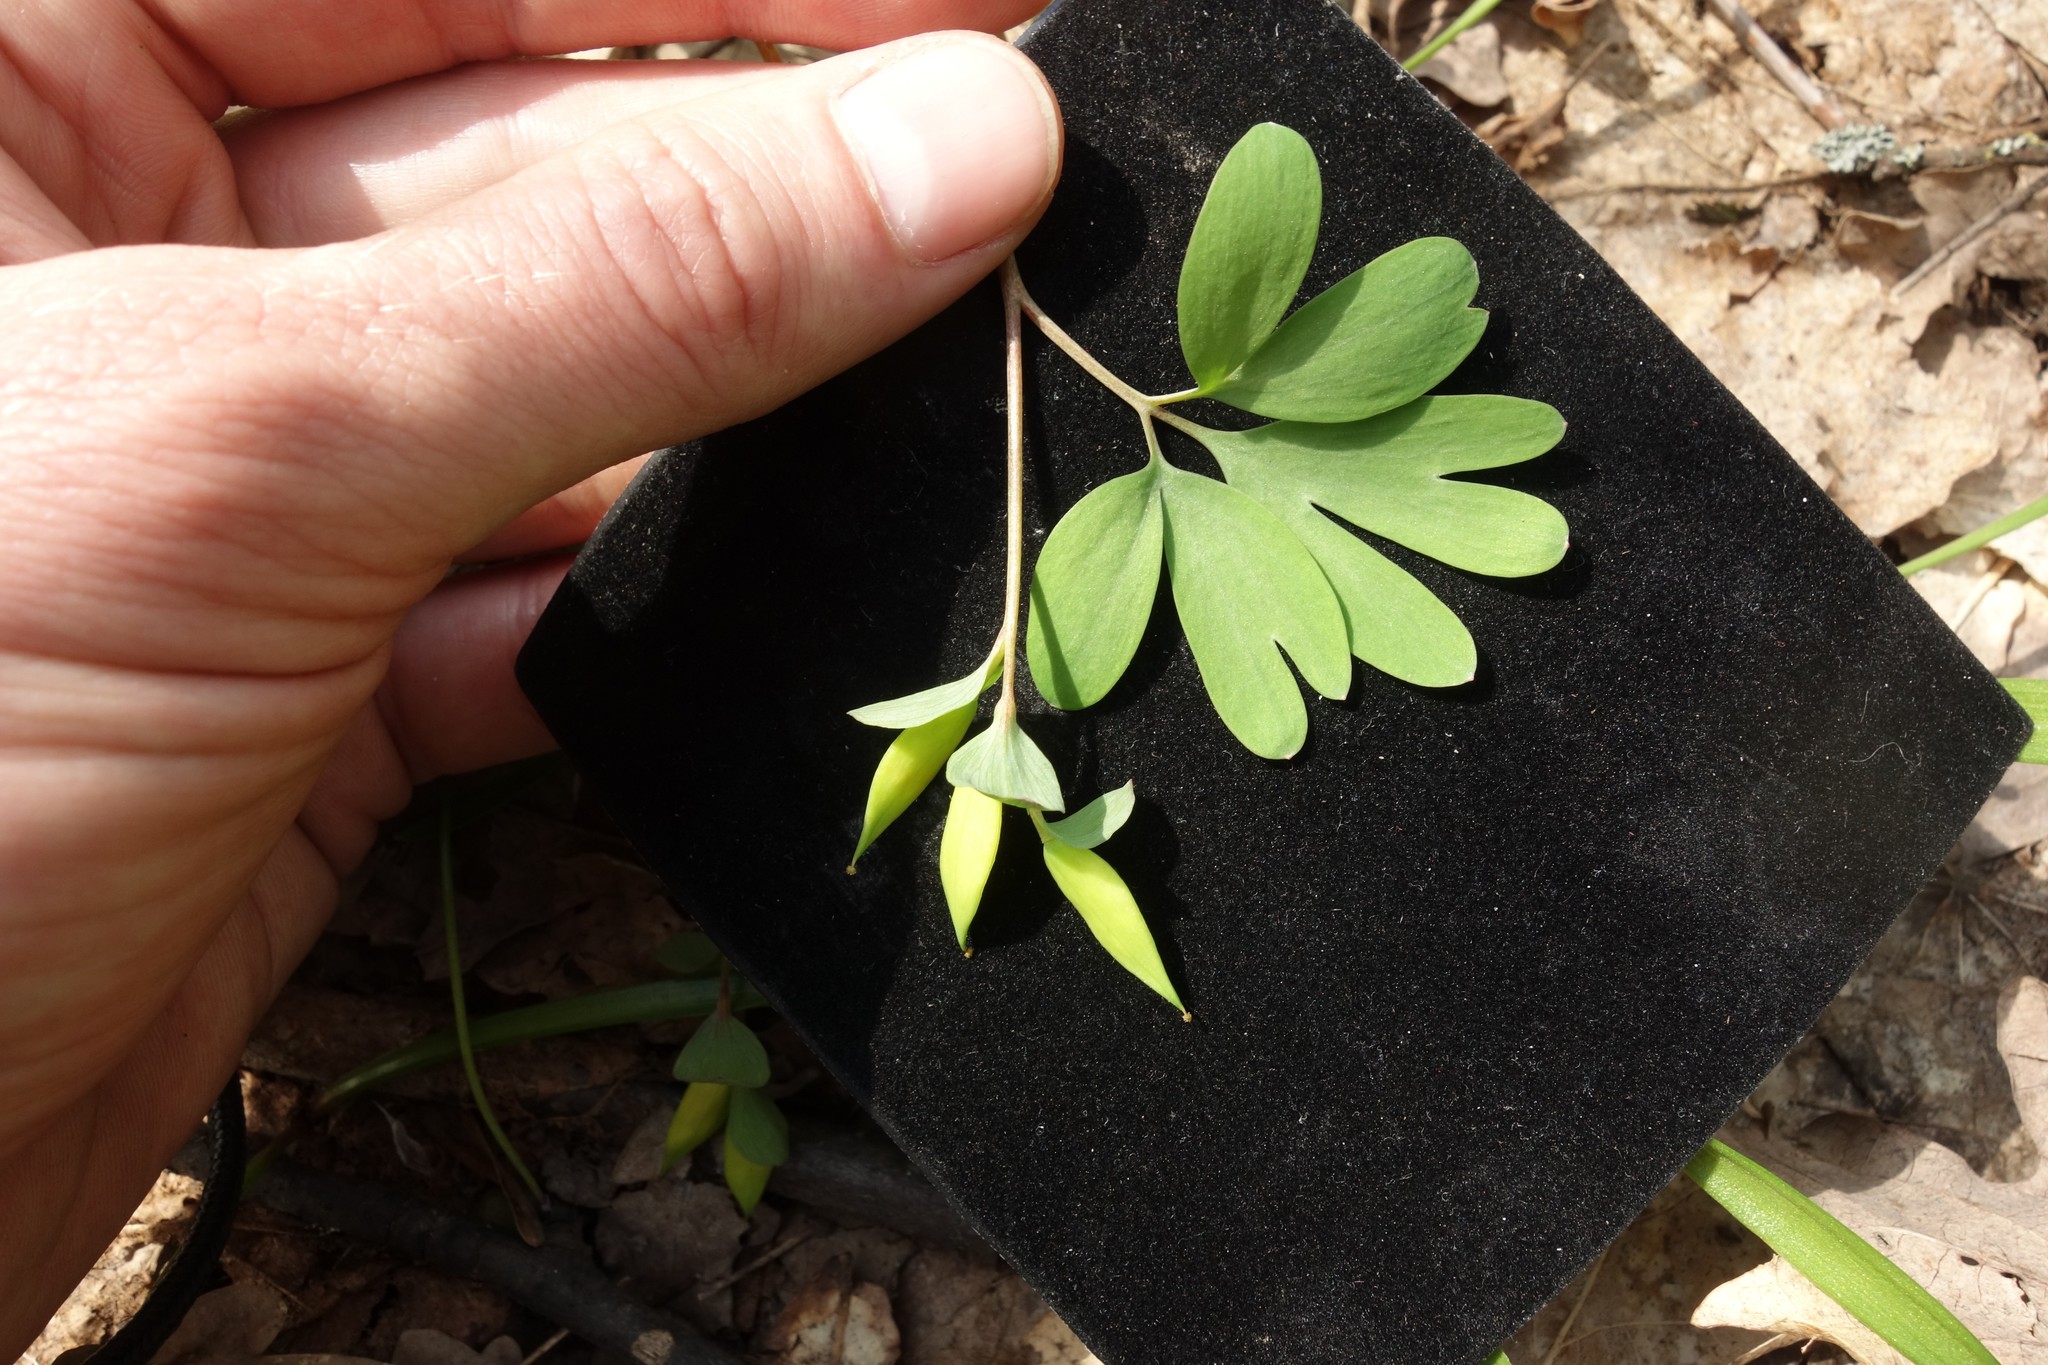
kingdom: Plantae
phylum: Tracheophyta
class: Magnoliopsida
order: Ranunculales
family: Papaveraceae
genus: Corydalis
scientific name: Corydalis intermedia
